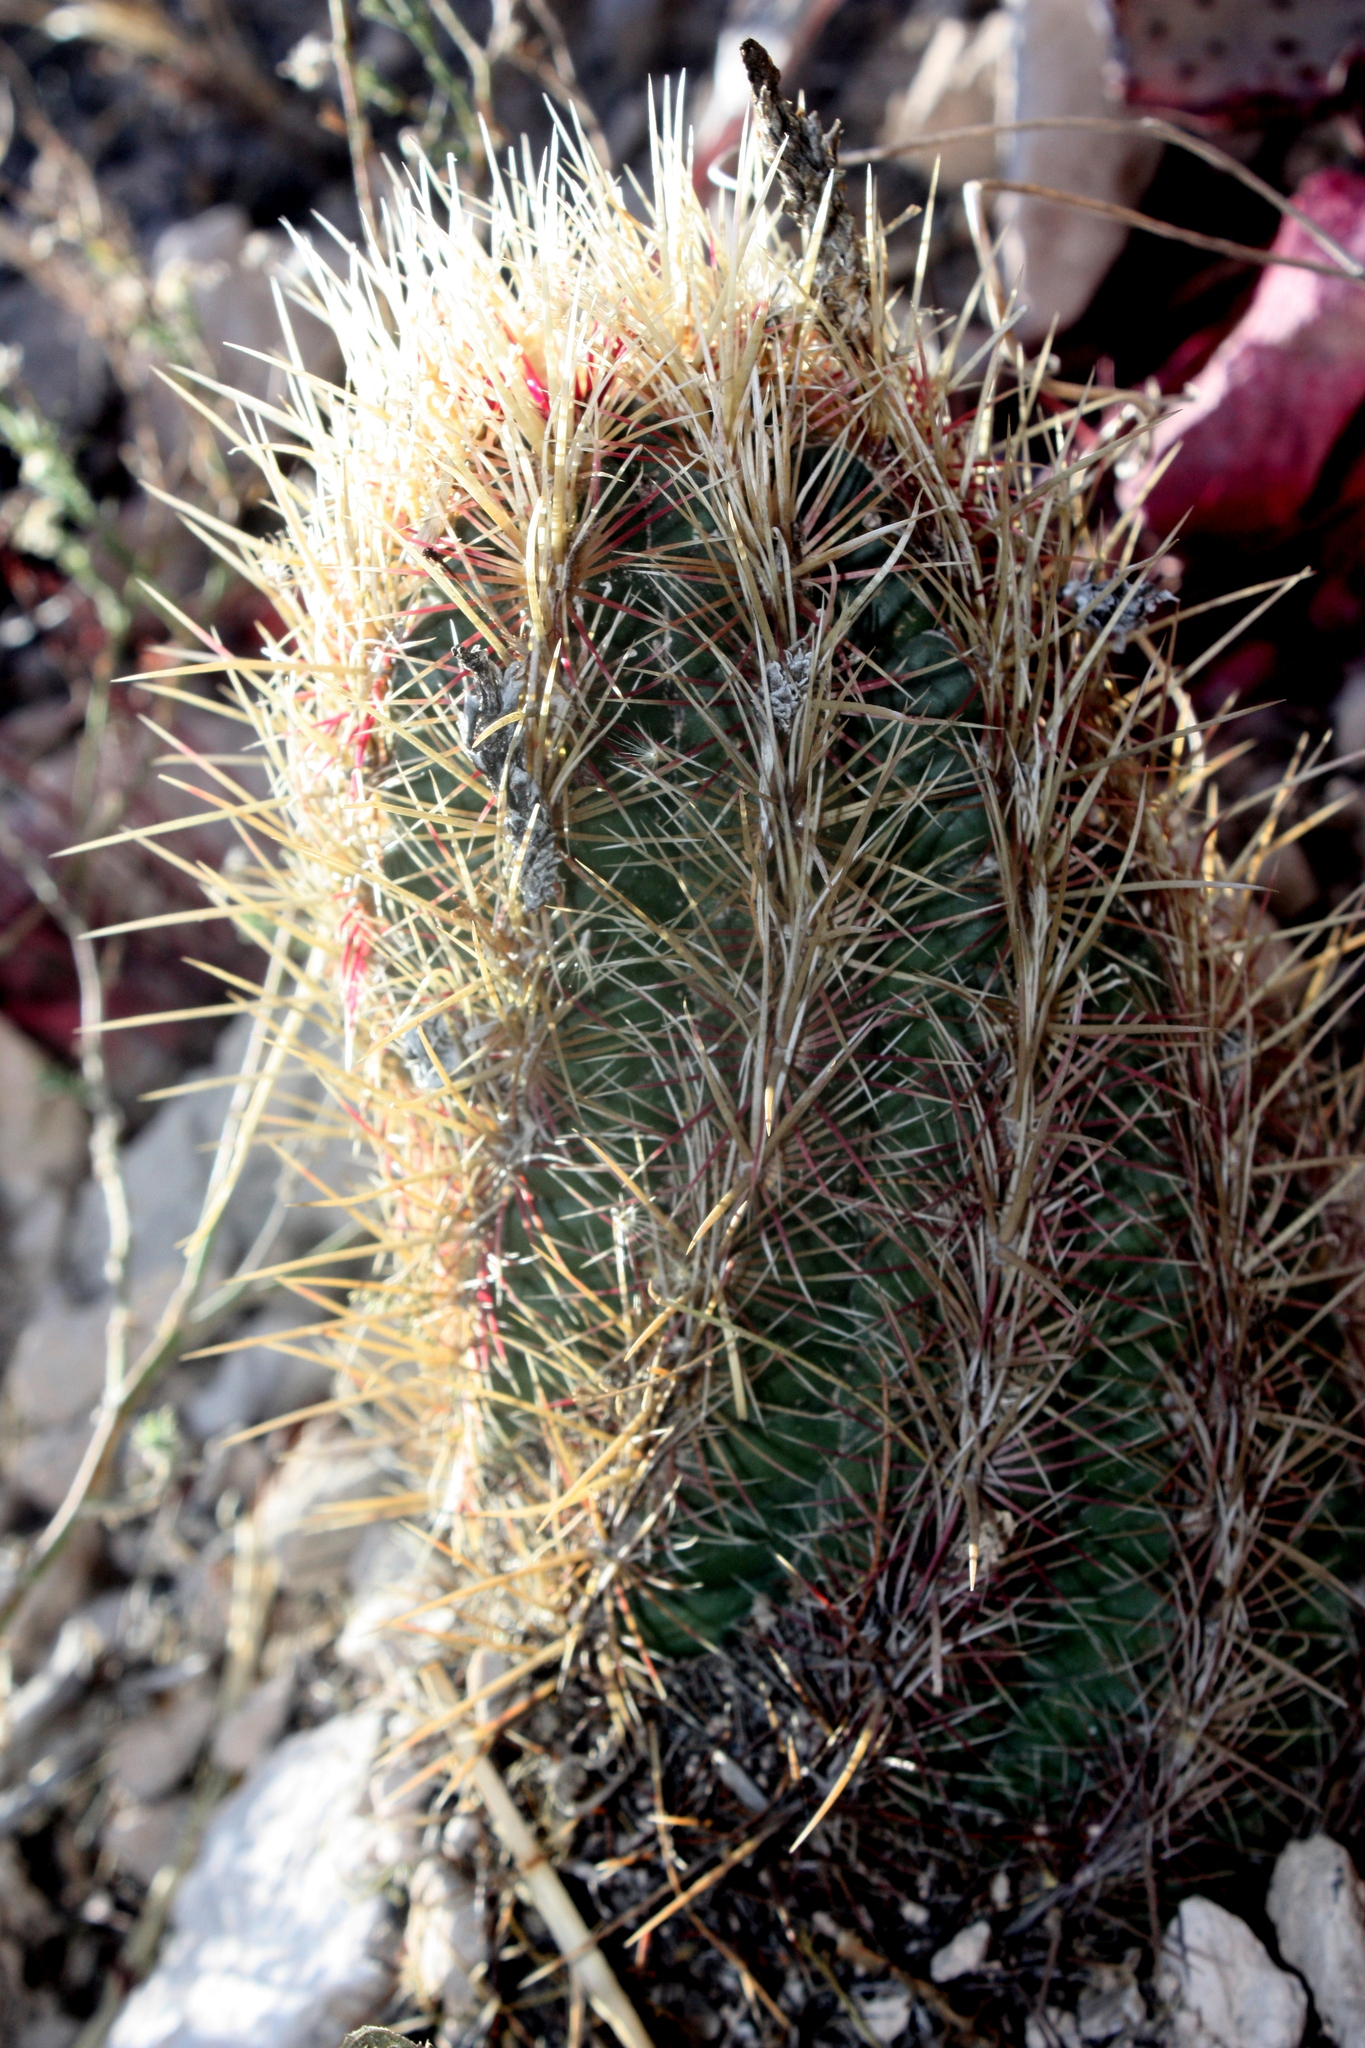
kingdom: Plantae
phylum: Tracheophyta
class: Magnoliopsida
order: Caryophyllales
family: Cactaceae
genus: Thelocactus
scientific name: Thelocactus bicolor
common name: Glory of texas
